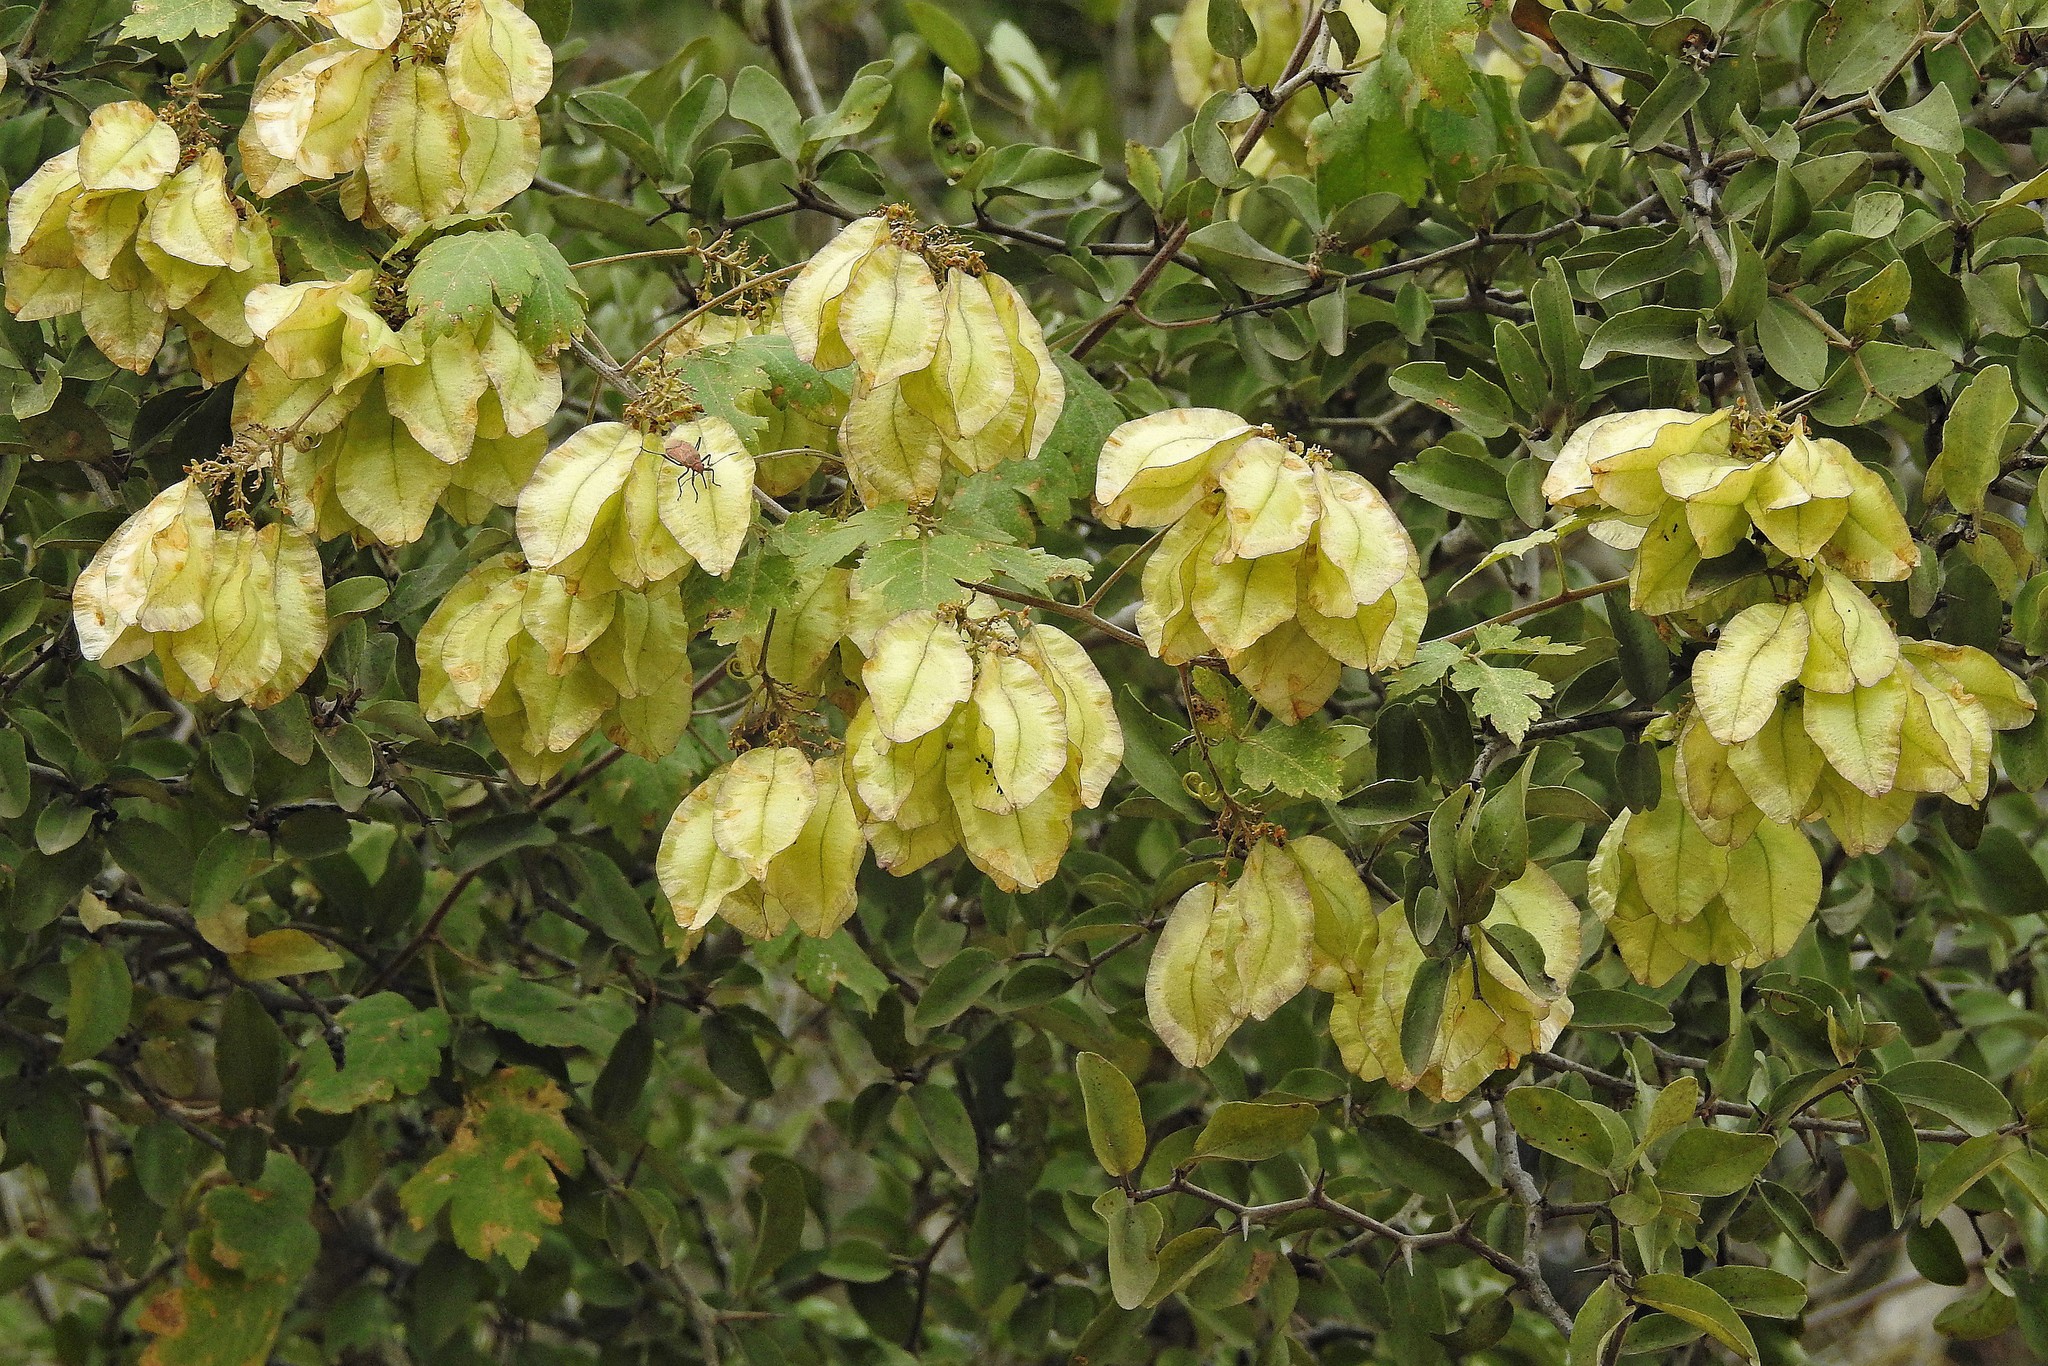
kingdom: Plantae
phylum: Tracheophyta
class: Magnoliopsida
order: Sapindales
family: Sapindaceae
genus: Urvillea
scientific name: Urvillea chacoensis
